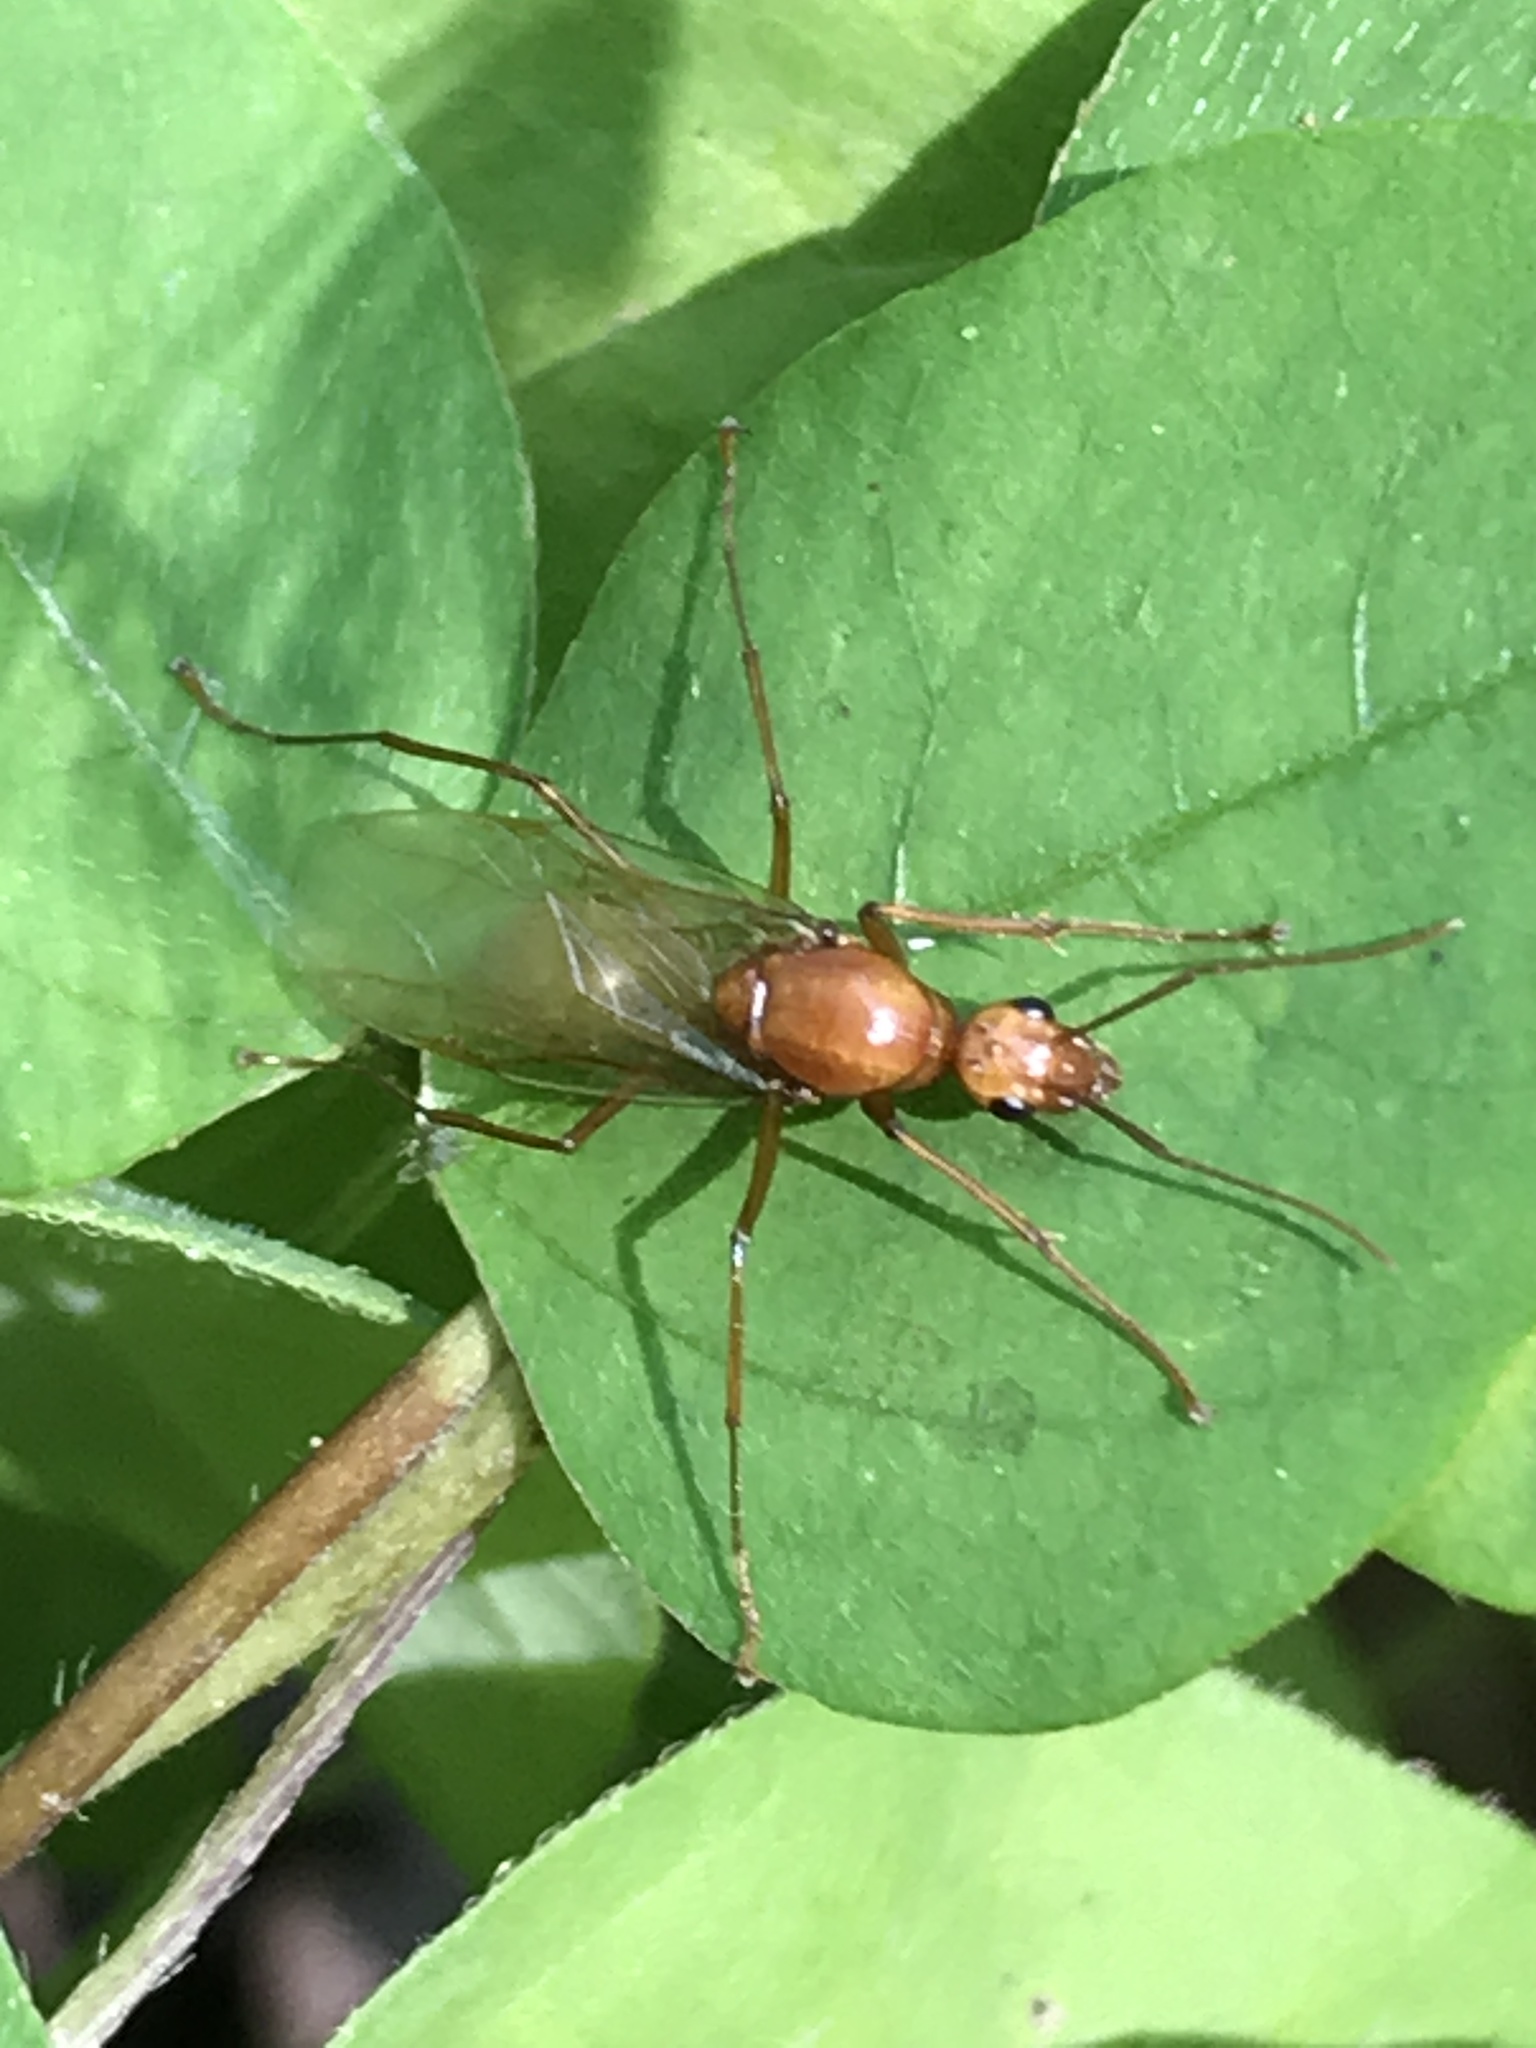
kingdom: Animalia
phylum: Arthropoda
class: Insecta
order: Hymenoptera
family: Formicidae
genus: Camponotus
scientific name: Camponotus castaneus
